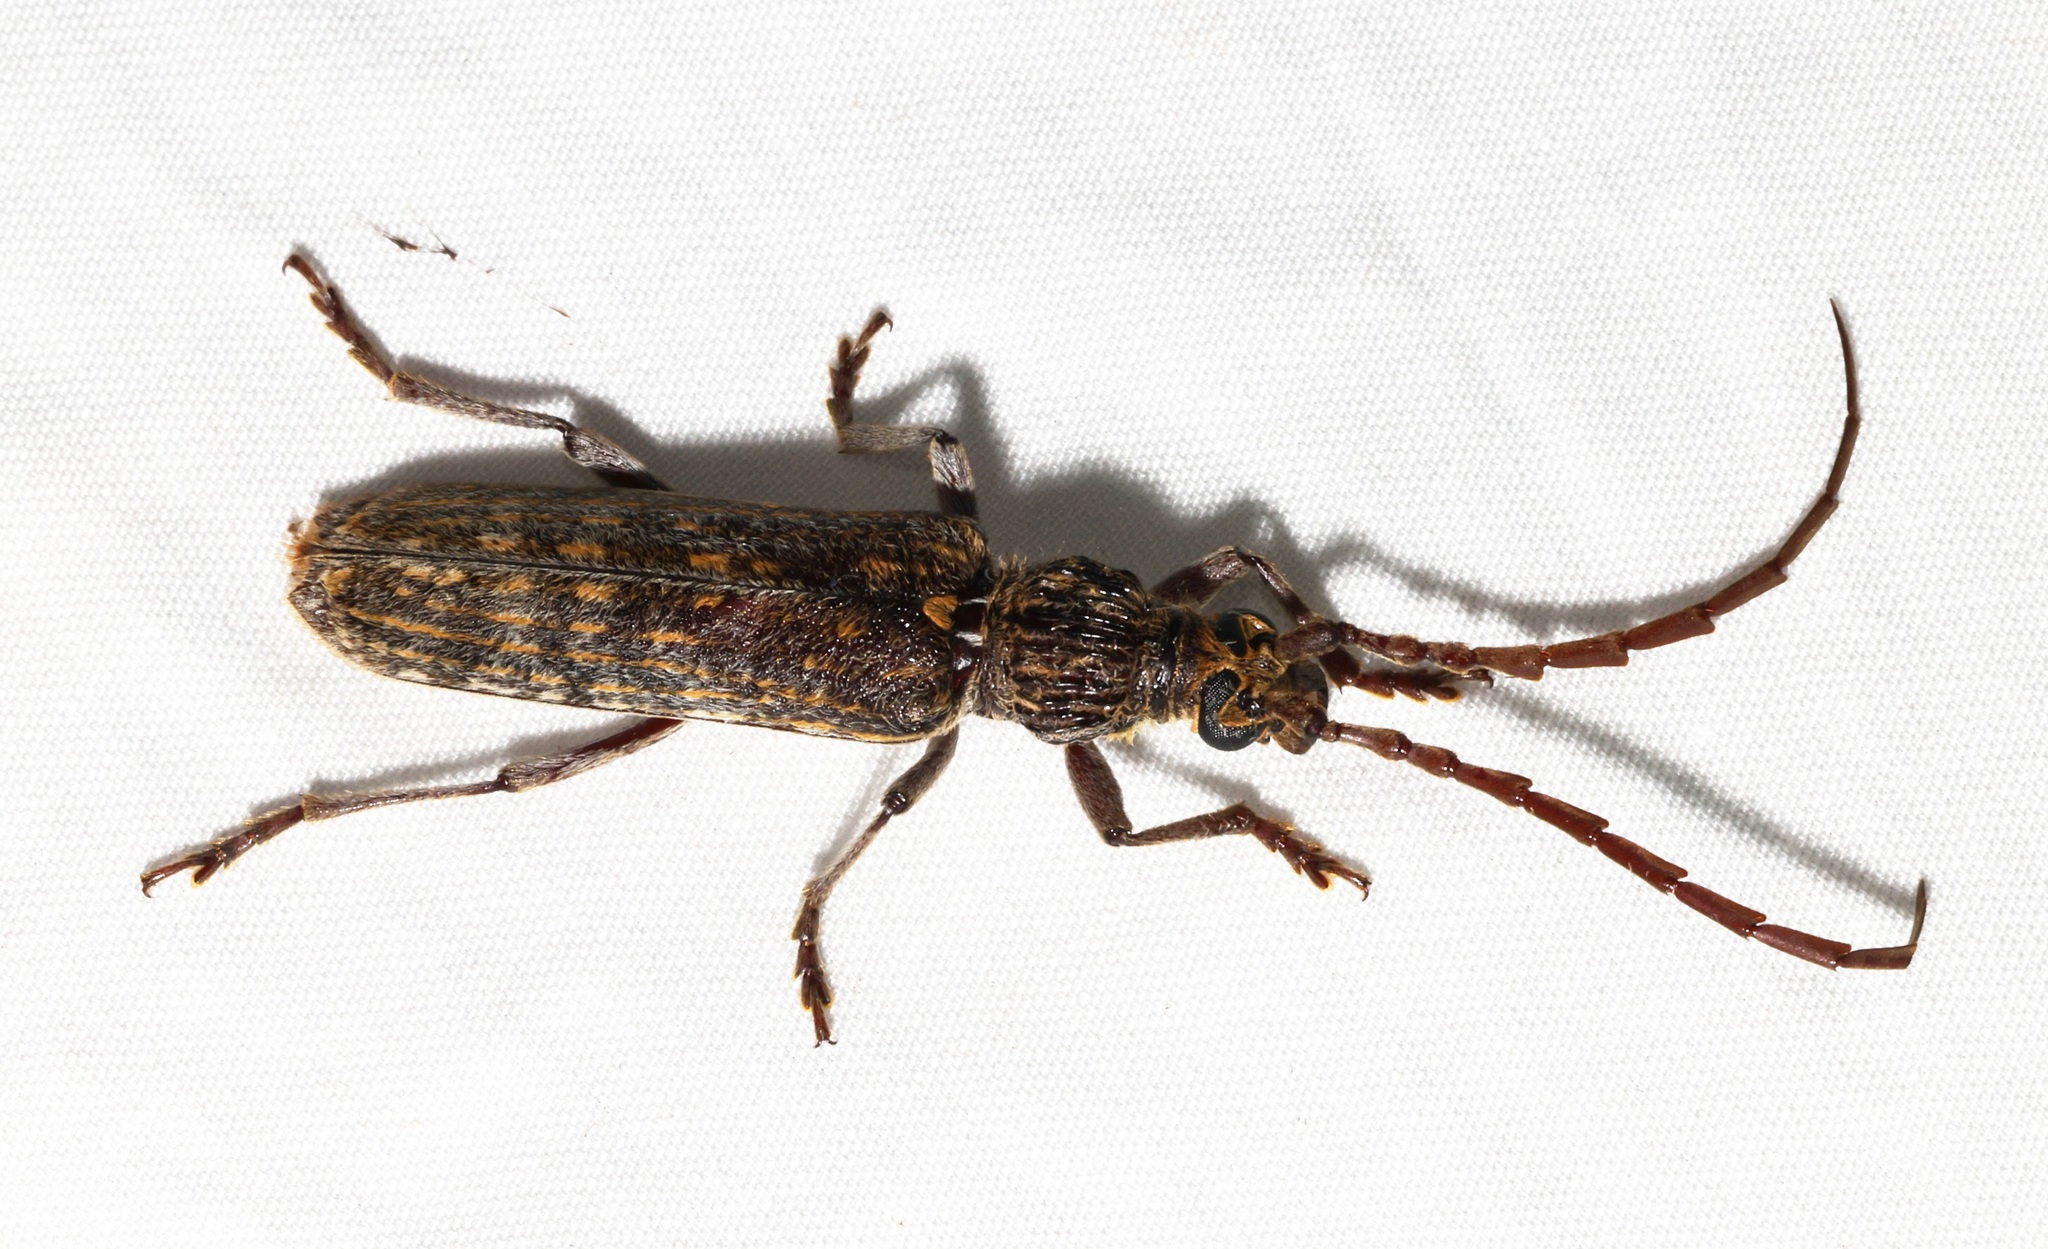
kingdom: Animalia
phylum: Arthropoda
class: Insecta
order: Coleoptera
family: Cerambycidae
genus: Rhytidodera
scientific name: Rhytidodera bowringii
